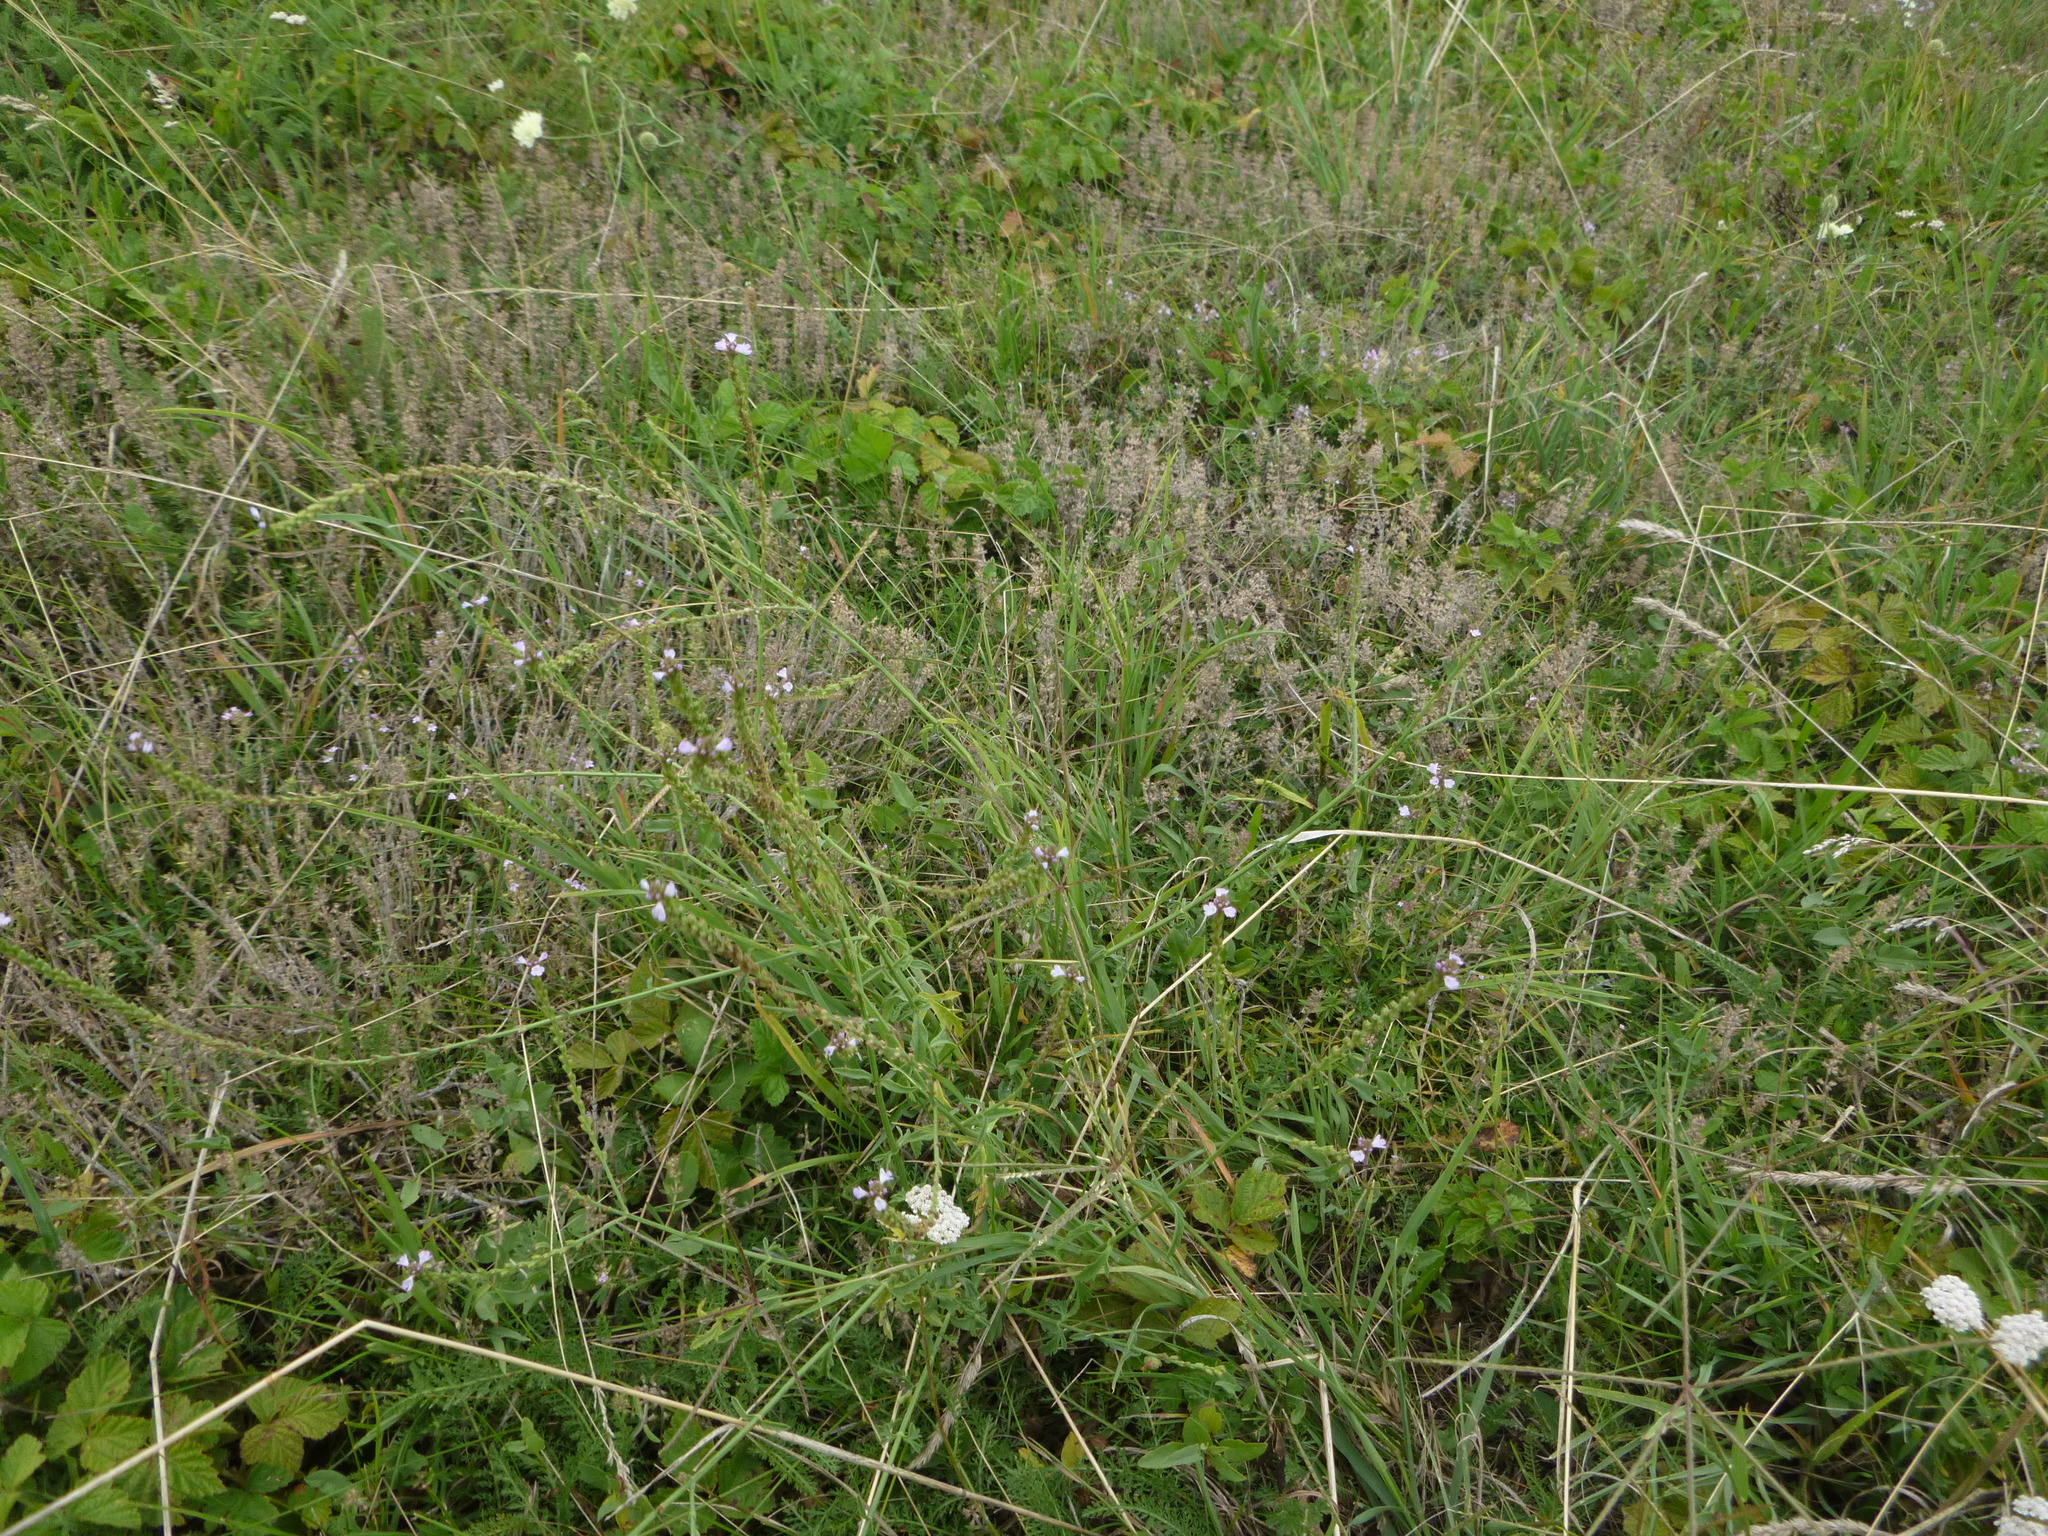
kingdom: Plantae
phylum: Tracheophyta
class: Magnoliopsida
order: Lamiales
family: Verbenaceae
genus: Verbena
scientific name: Verbena officinalis
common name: Vervain
